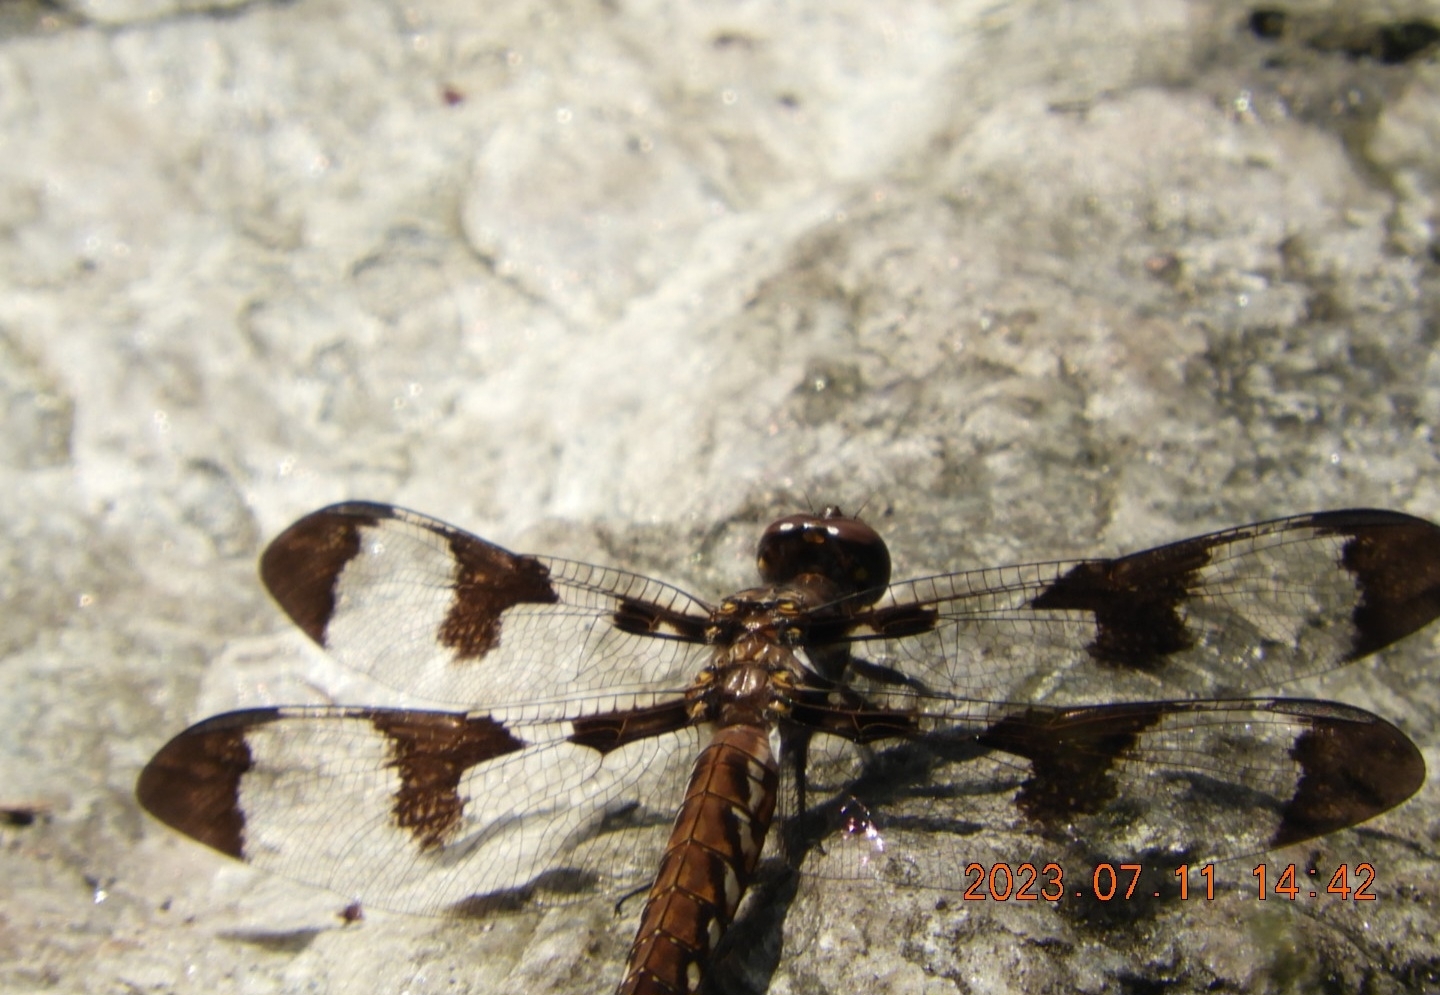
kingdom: Animalia
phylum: Arthropoda
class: Insecta
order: Odonata
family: Libellulidae
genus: Plathemis
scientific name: Plathemis lydia
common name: Common whitetail
